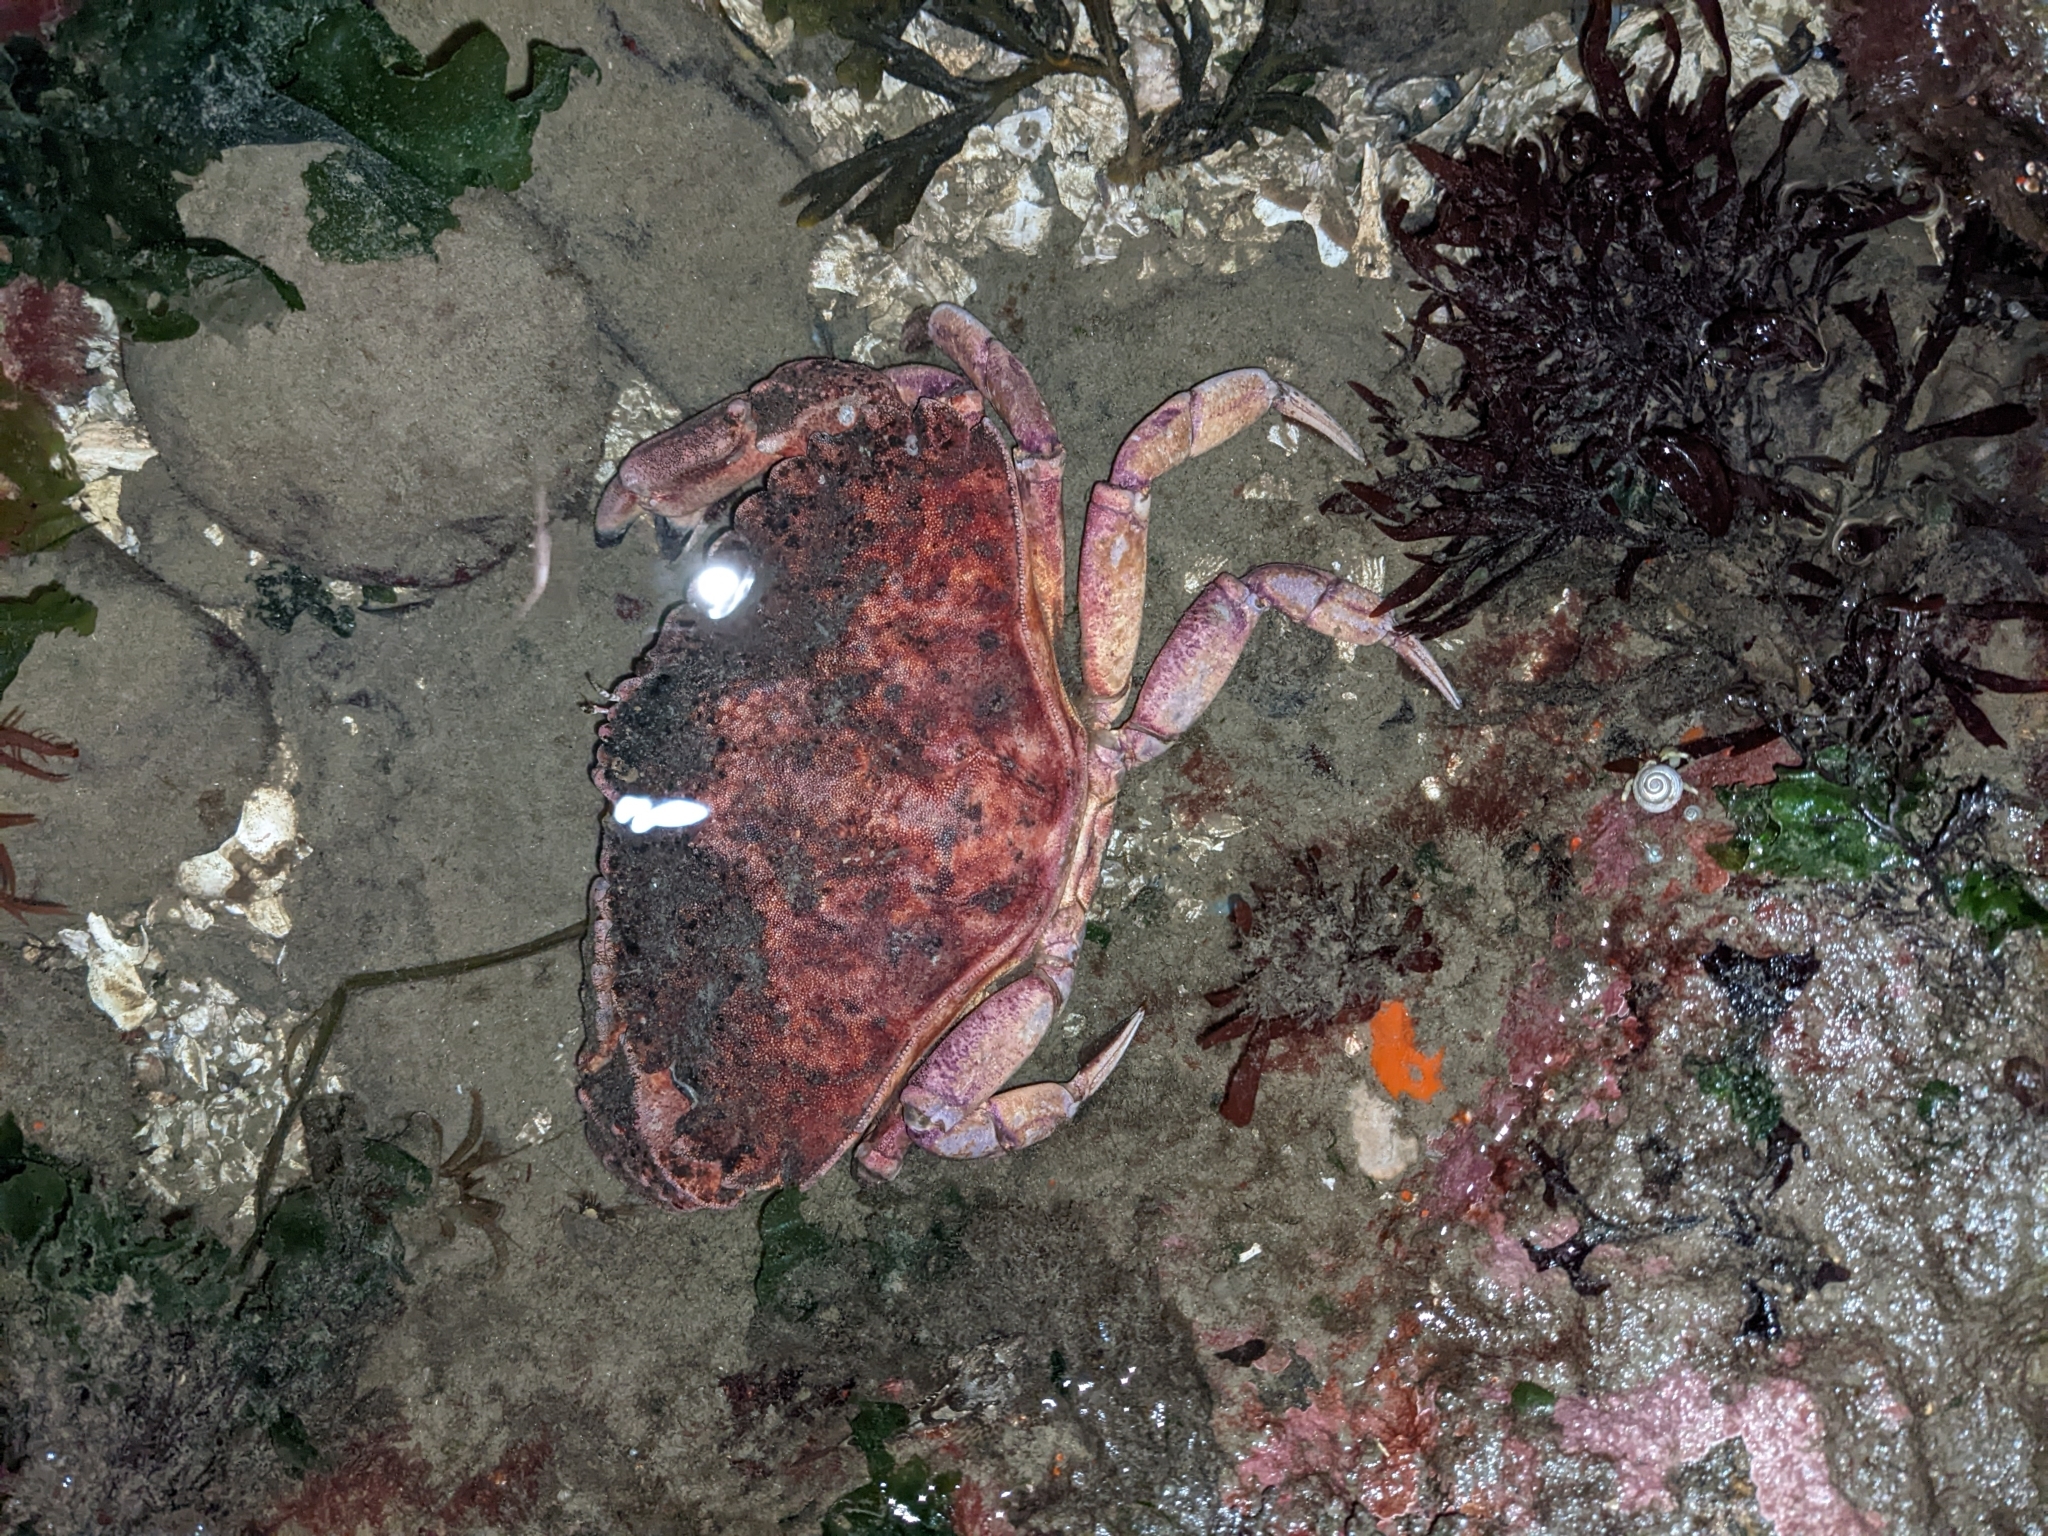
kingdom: Animalia
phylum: Arthropoda
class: Malacostraca
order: Decapoda
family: Cancridae
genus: Cancer
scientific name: Cancer productus
